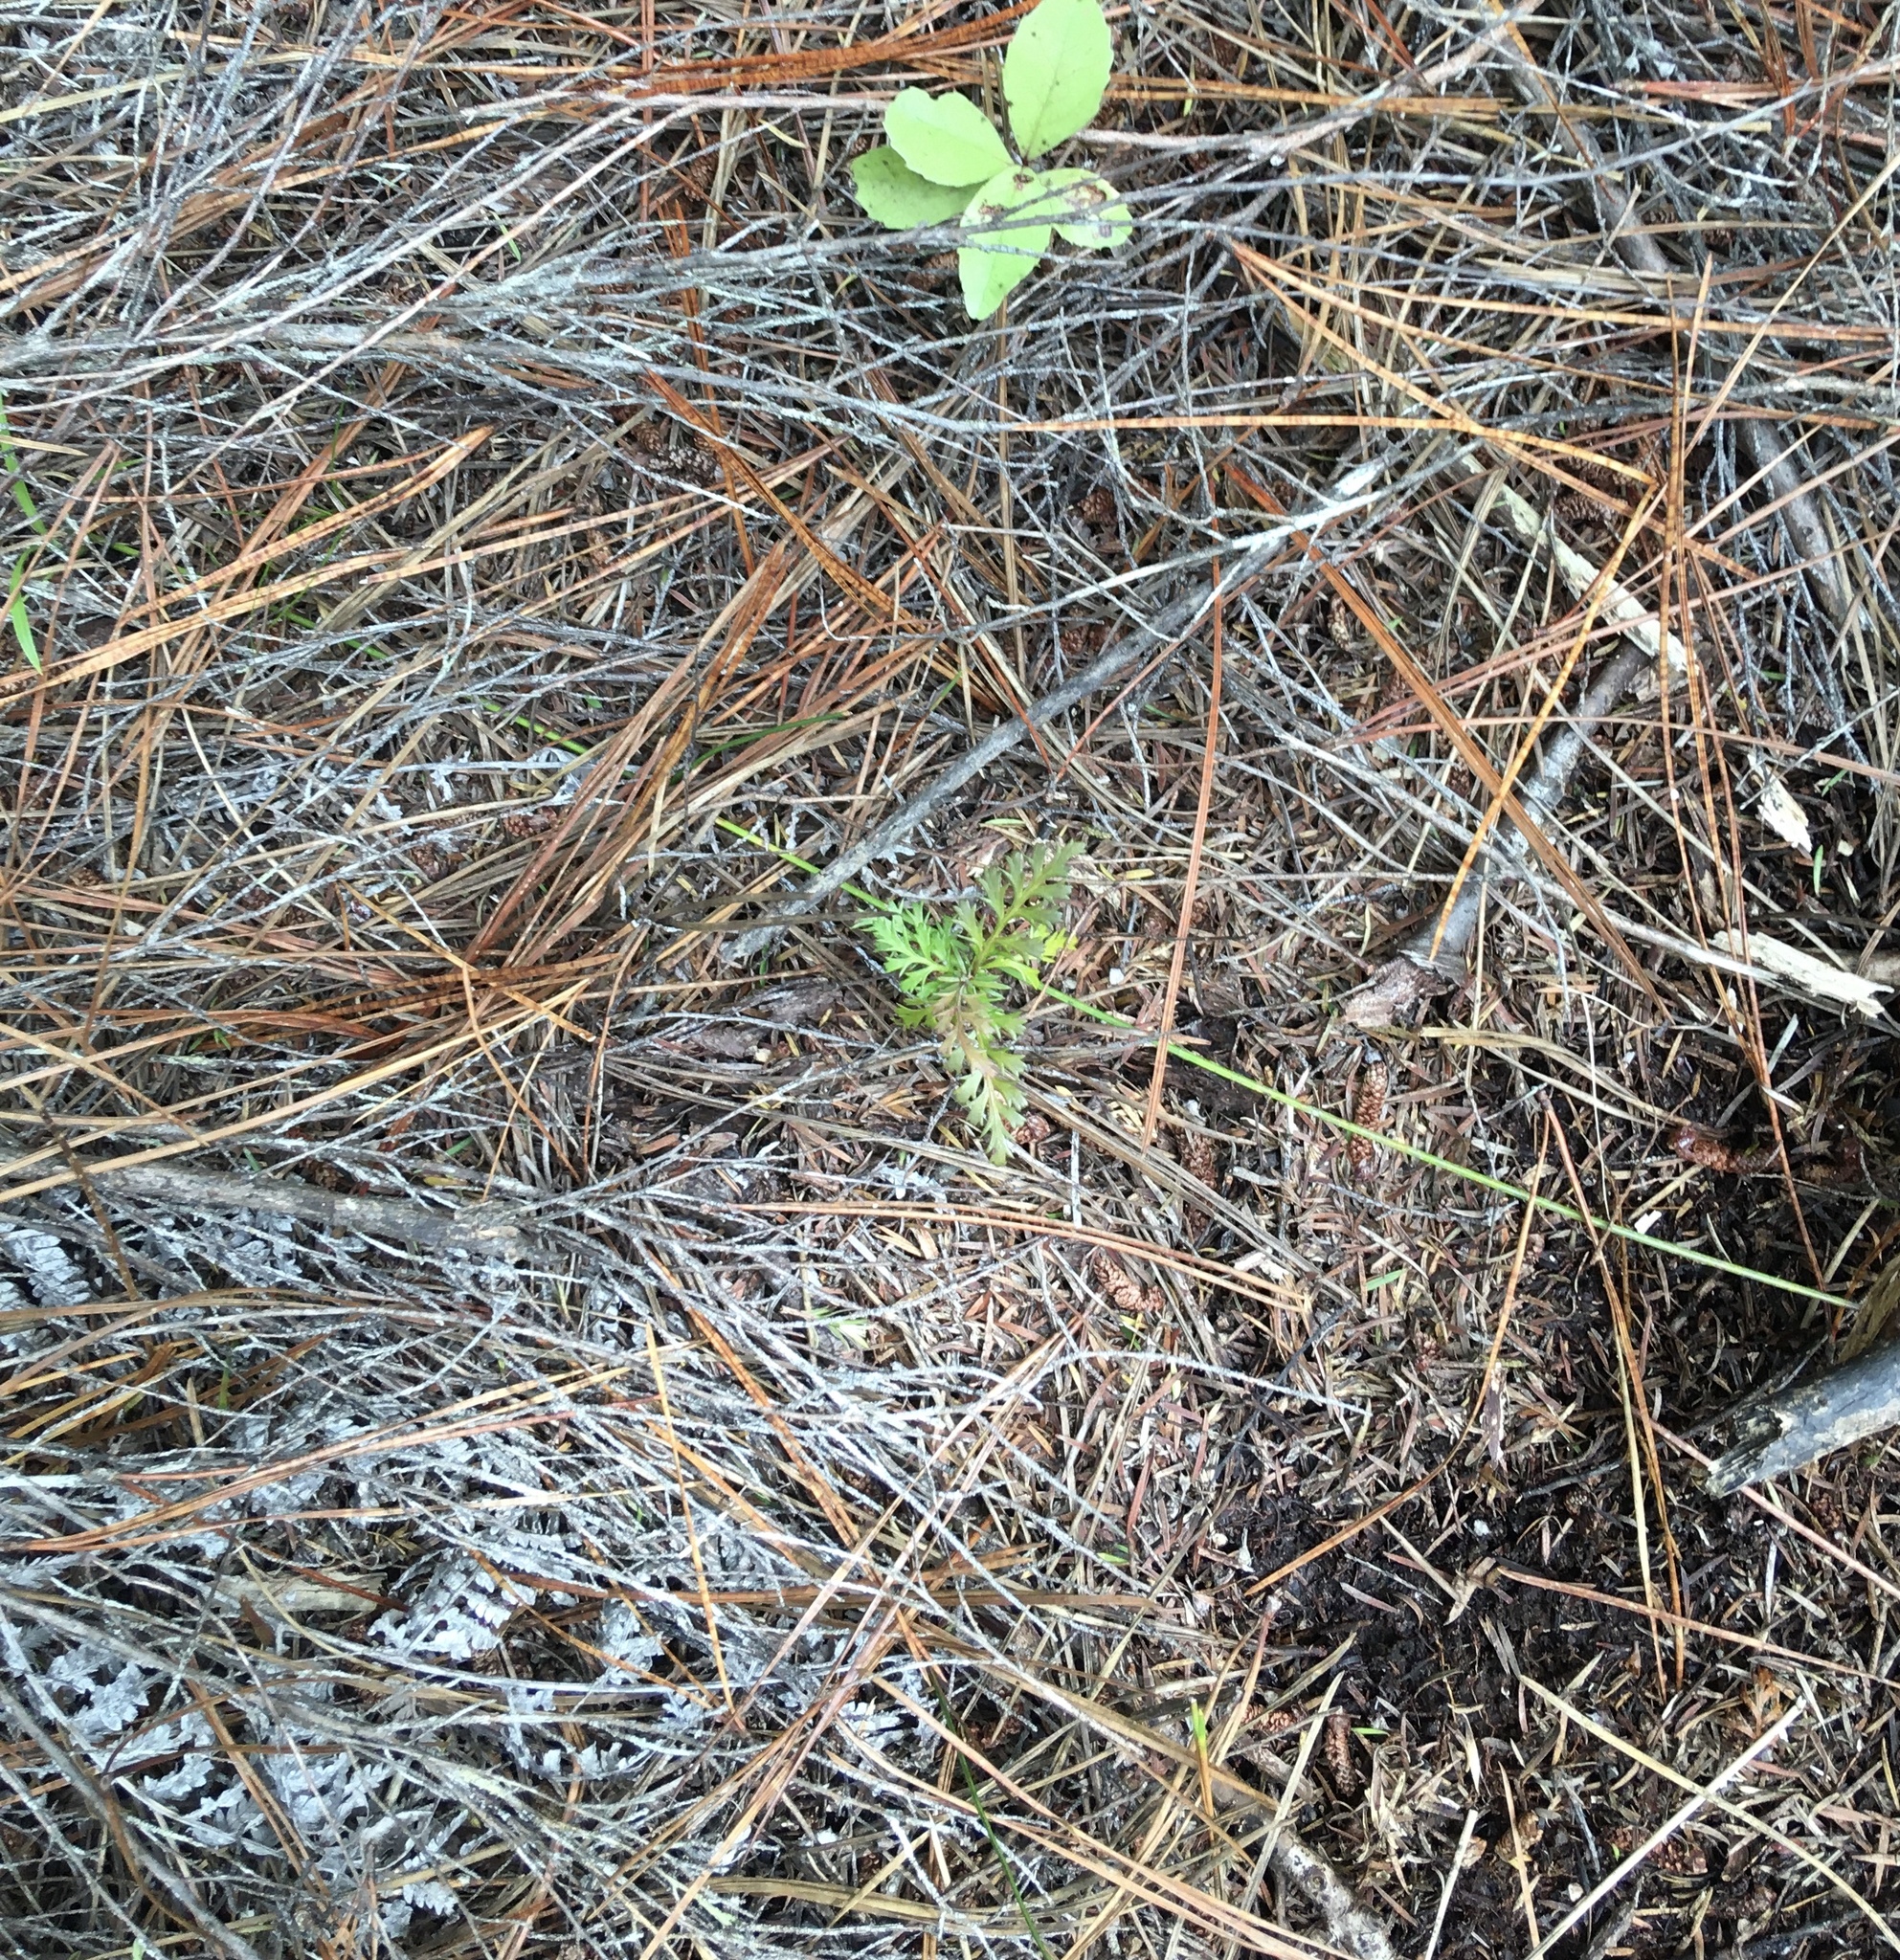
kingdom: Plantae
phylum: Tracheophyta
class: Pinopsida
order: Pinales
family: Phyllocladaceae
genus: Phyllocladus
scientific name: Phyllocladus trichomanoides
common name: Celery pine
